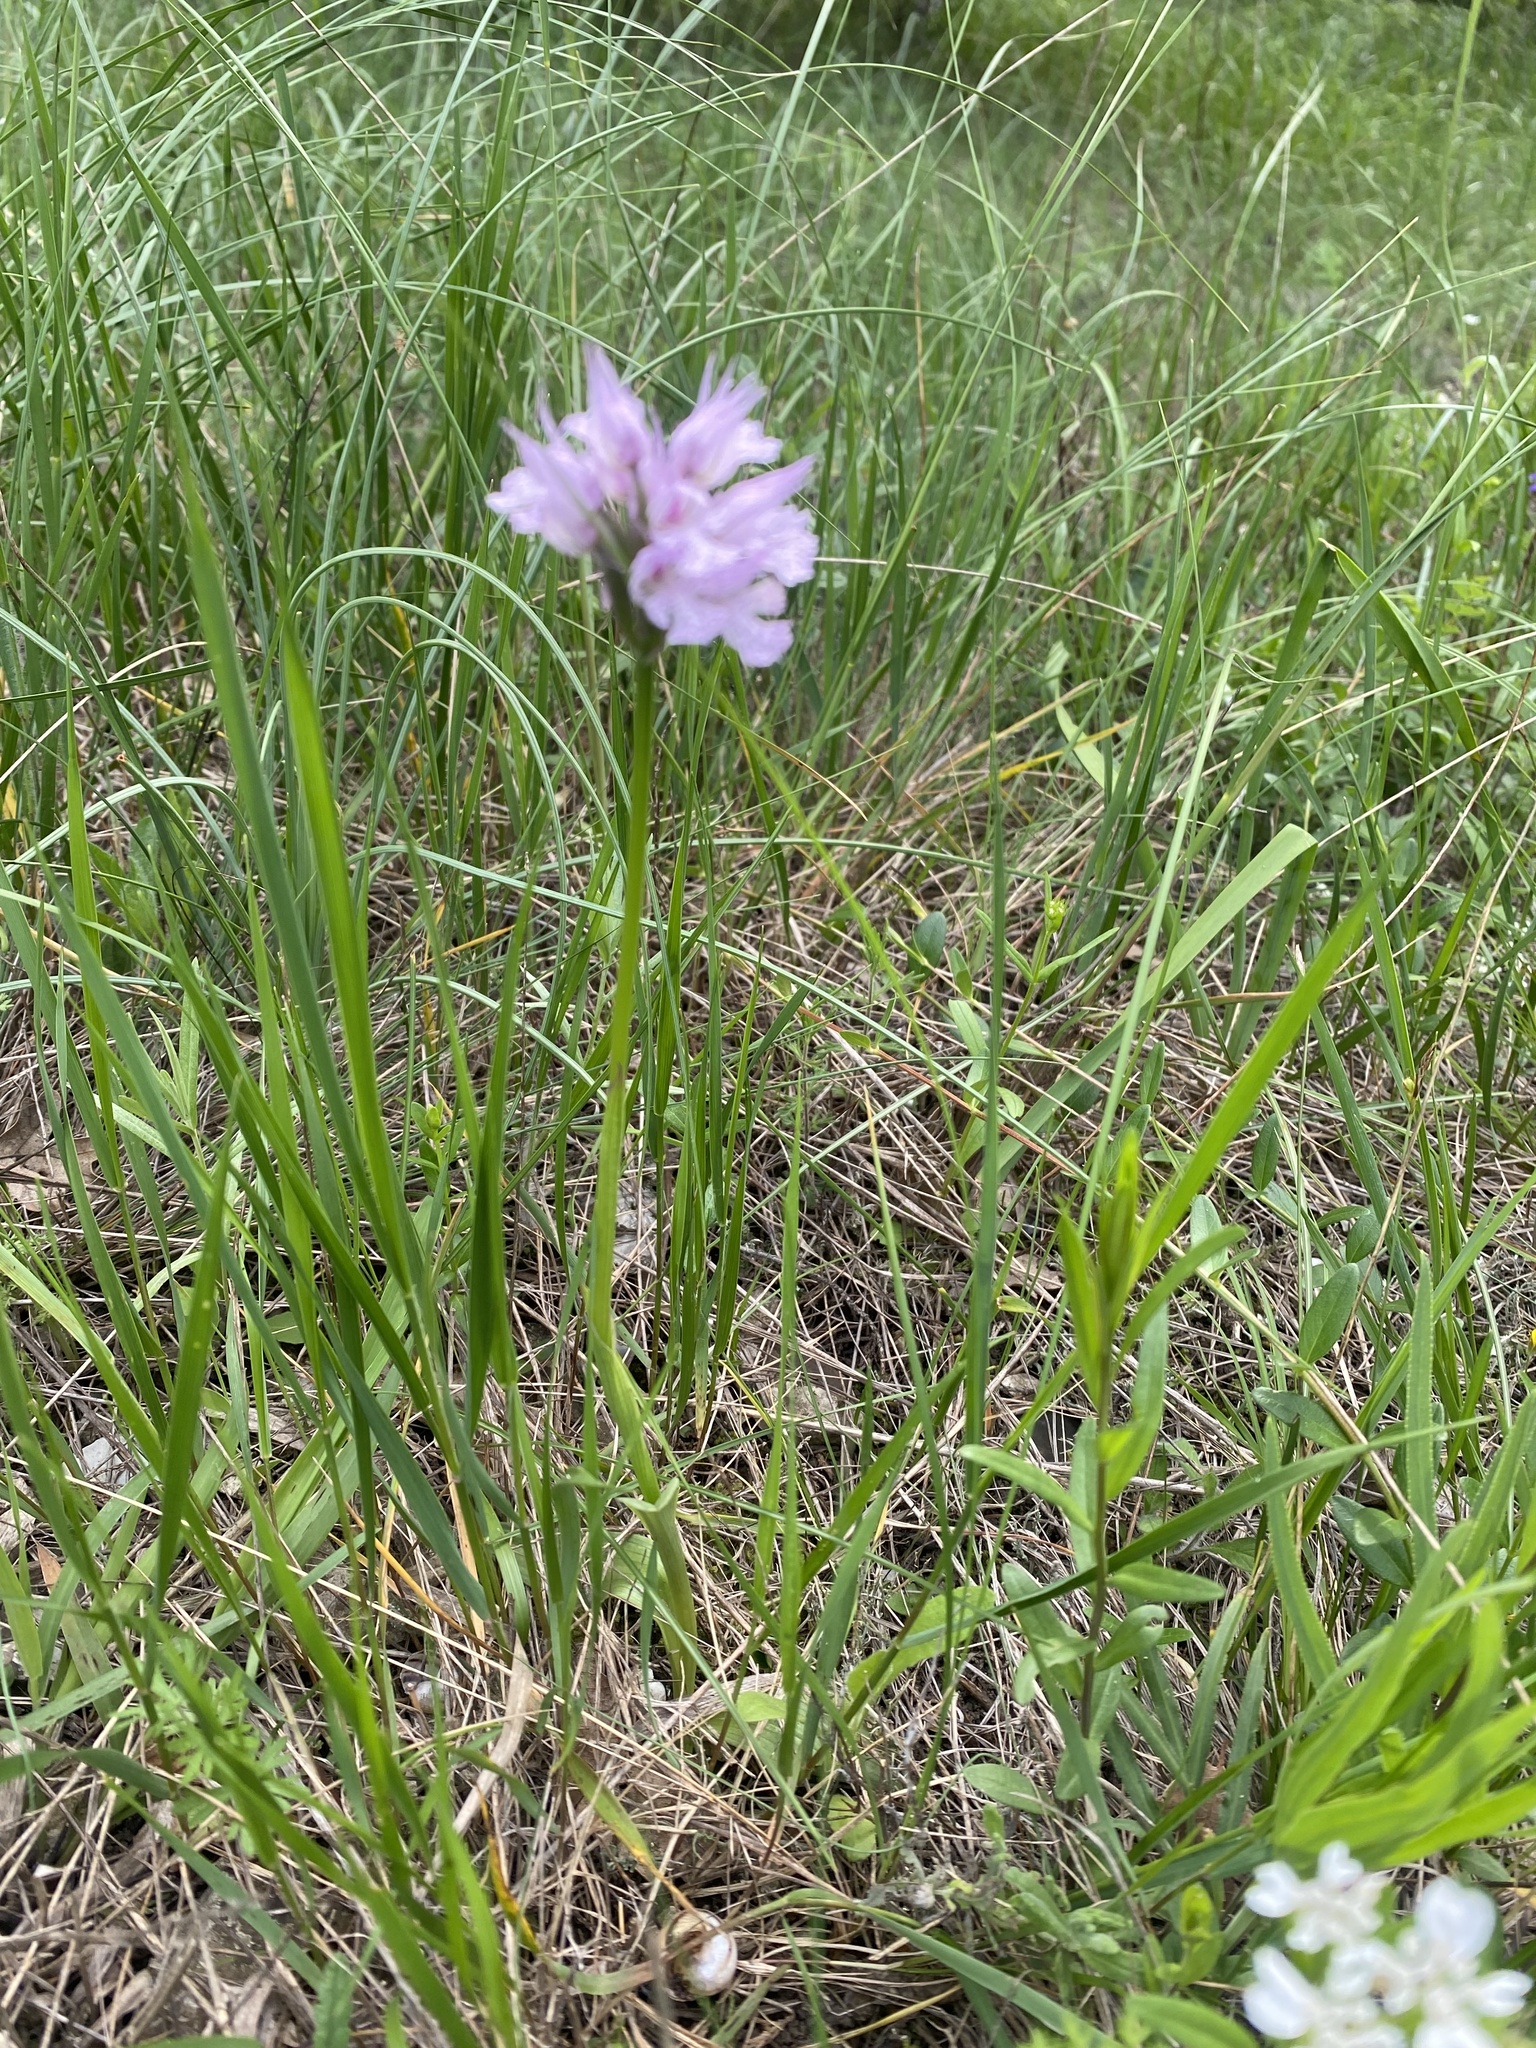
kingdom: Plantae
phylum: Tracheophyta
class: Liliopsida
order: Asparagales
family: Orchidaceae
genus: Neotinea
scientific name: Neotinea tridentata
